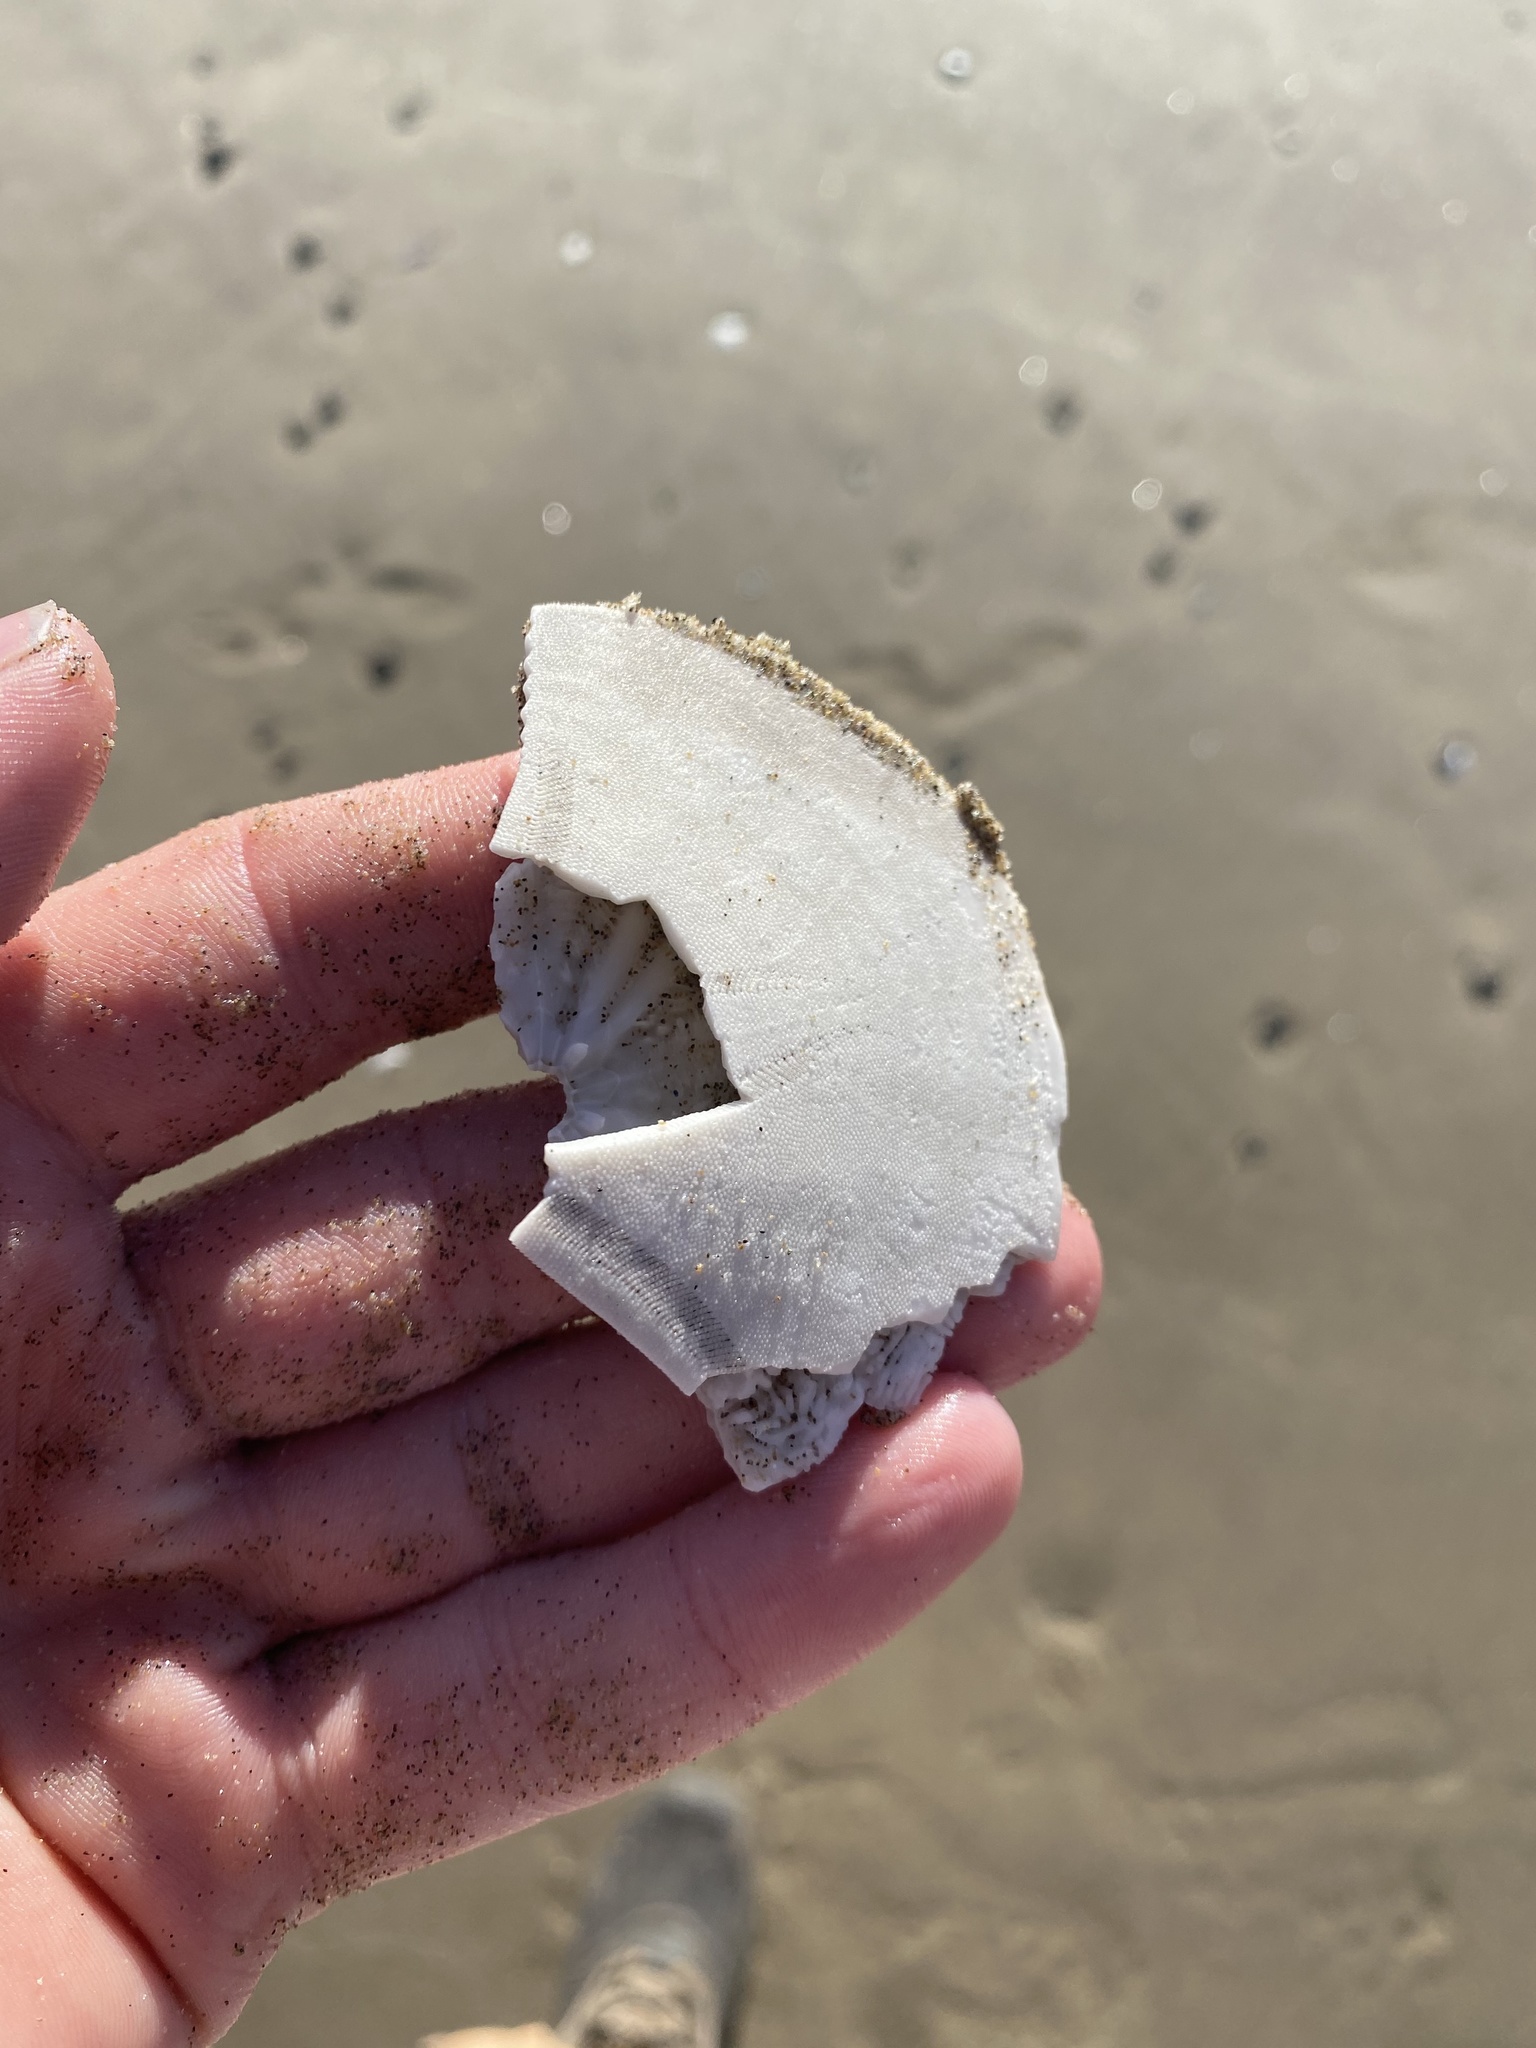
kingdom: Animalia
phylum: Echinodermata
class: Echinoidea
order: Echinolampadacea
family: Dendrasteridae
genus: Dendraster
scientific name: Dendraster excentricus
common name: Eccentric sand dollar sea urchin
